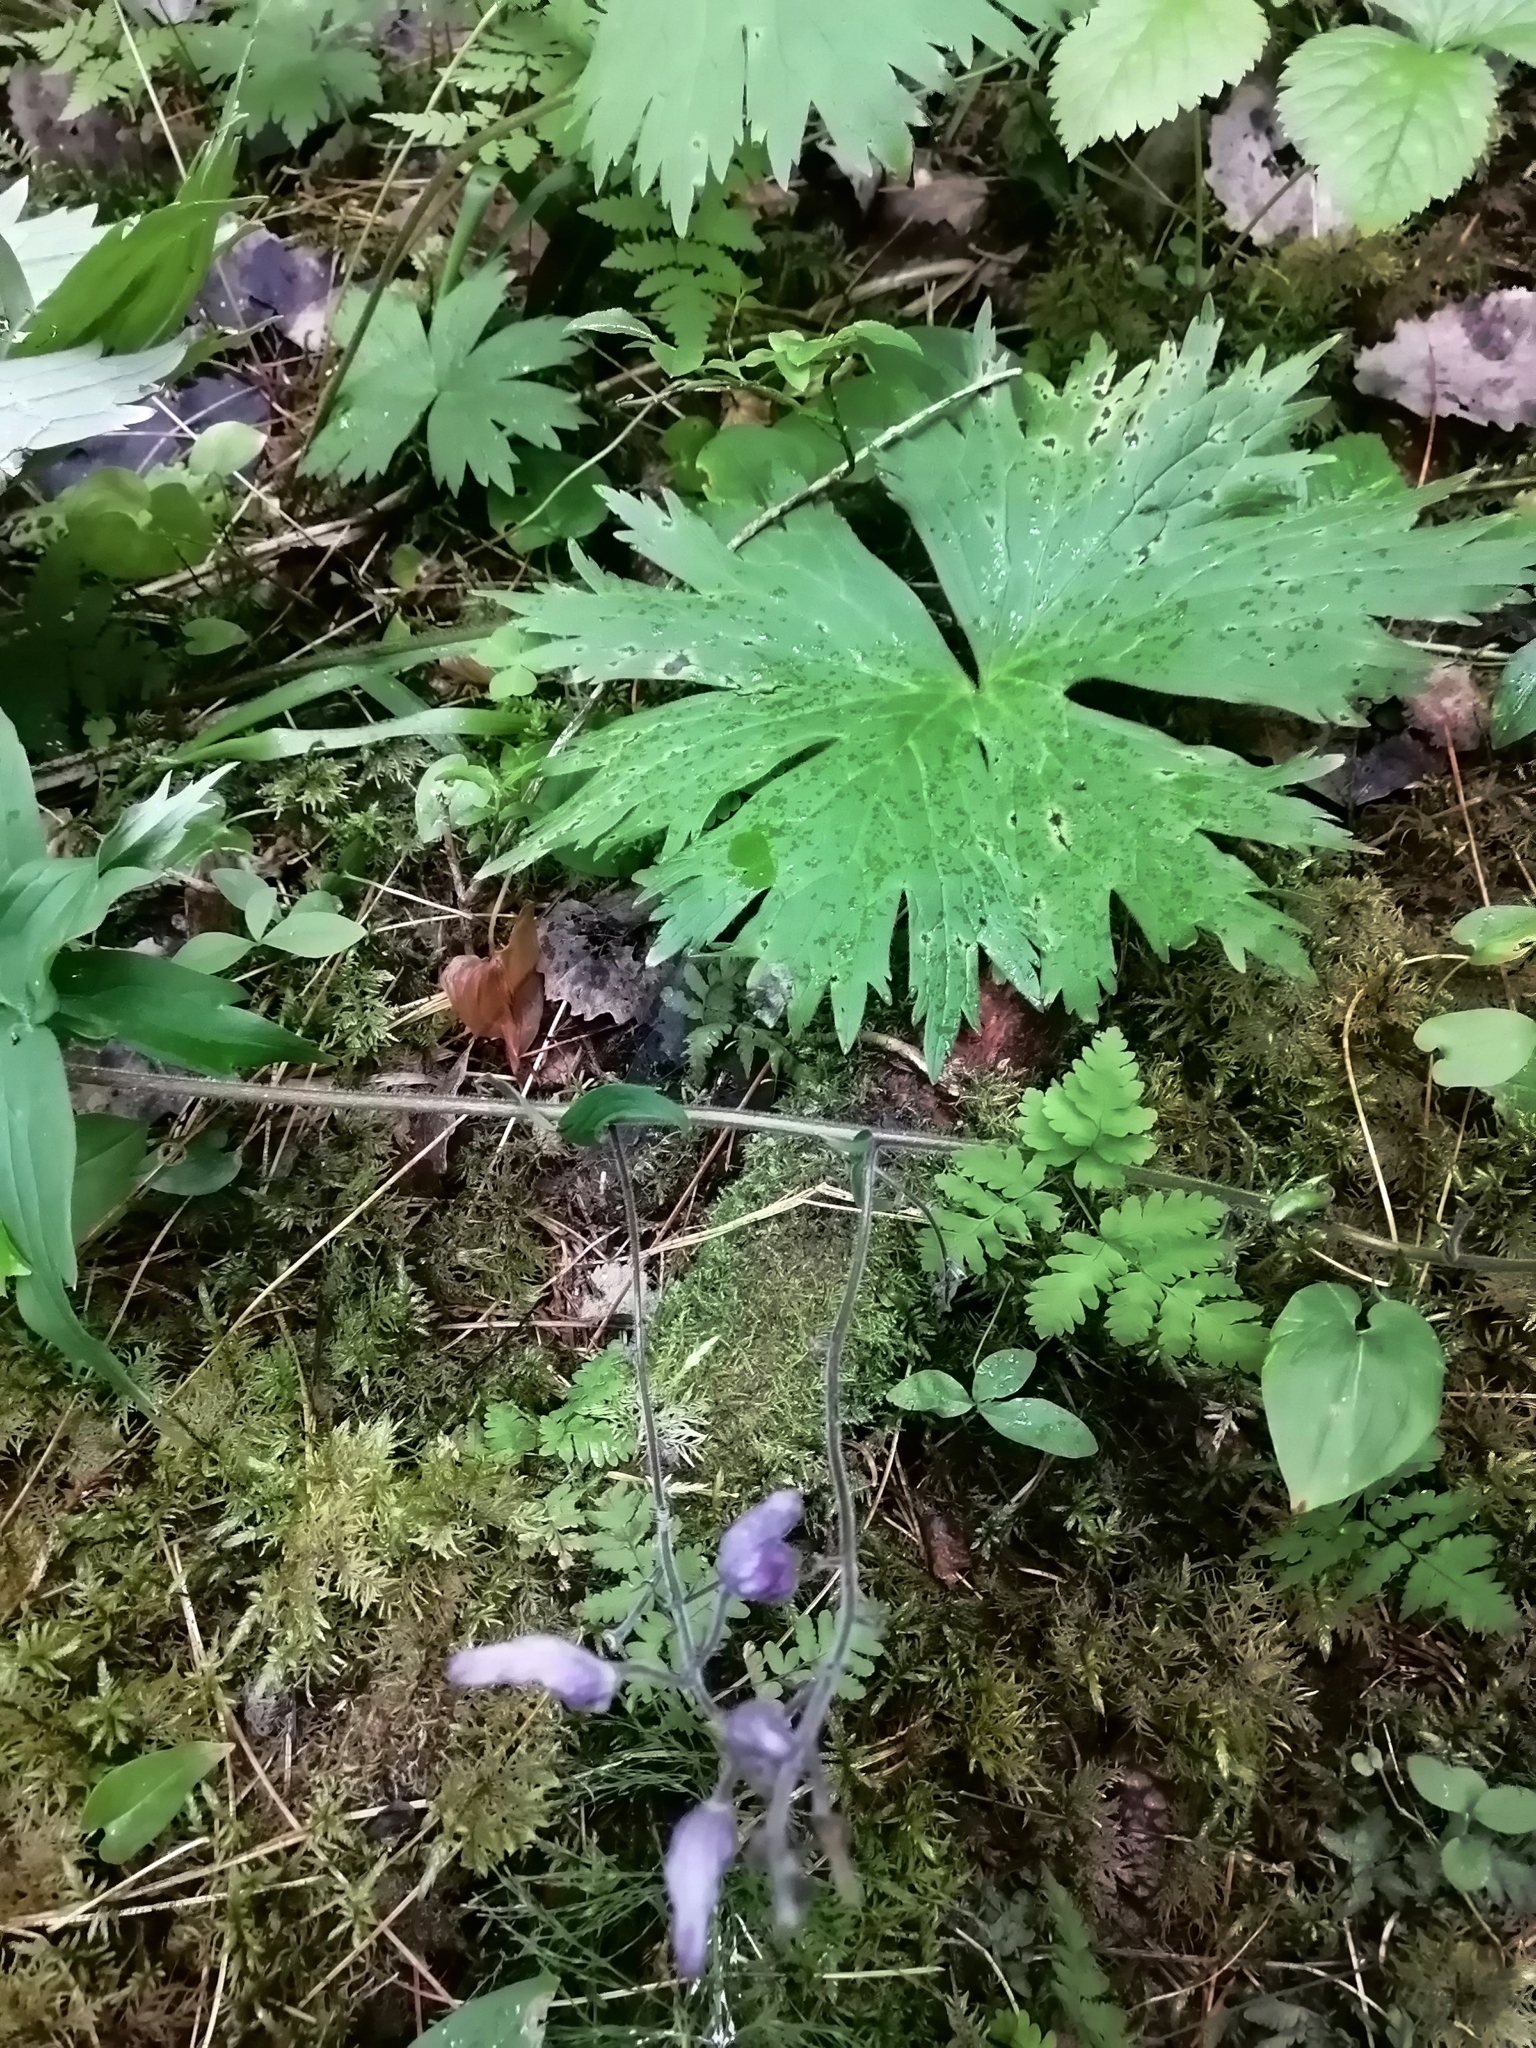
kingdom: Plantae
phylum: Tracheophyta
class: Magnoliopsida
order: Ranunculales
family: Ranunculaceae
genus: Aconitum
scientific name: Aconitum septentrionale
